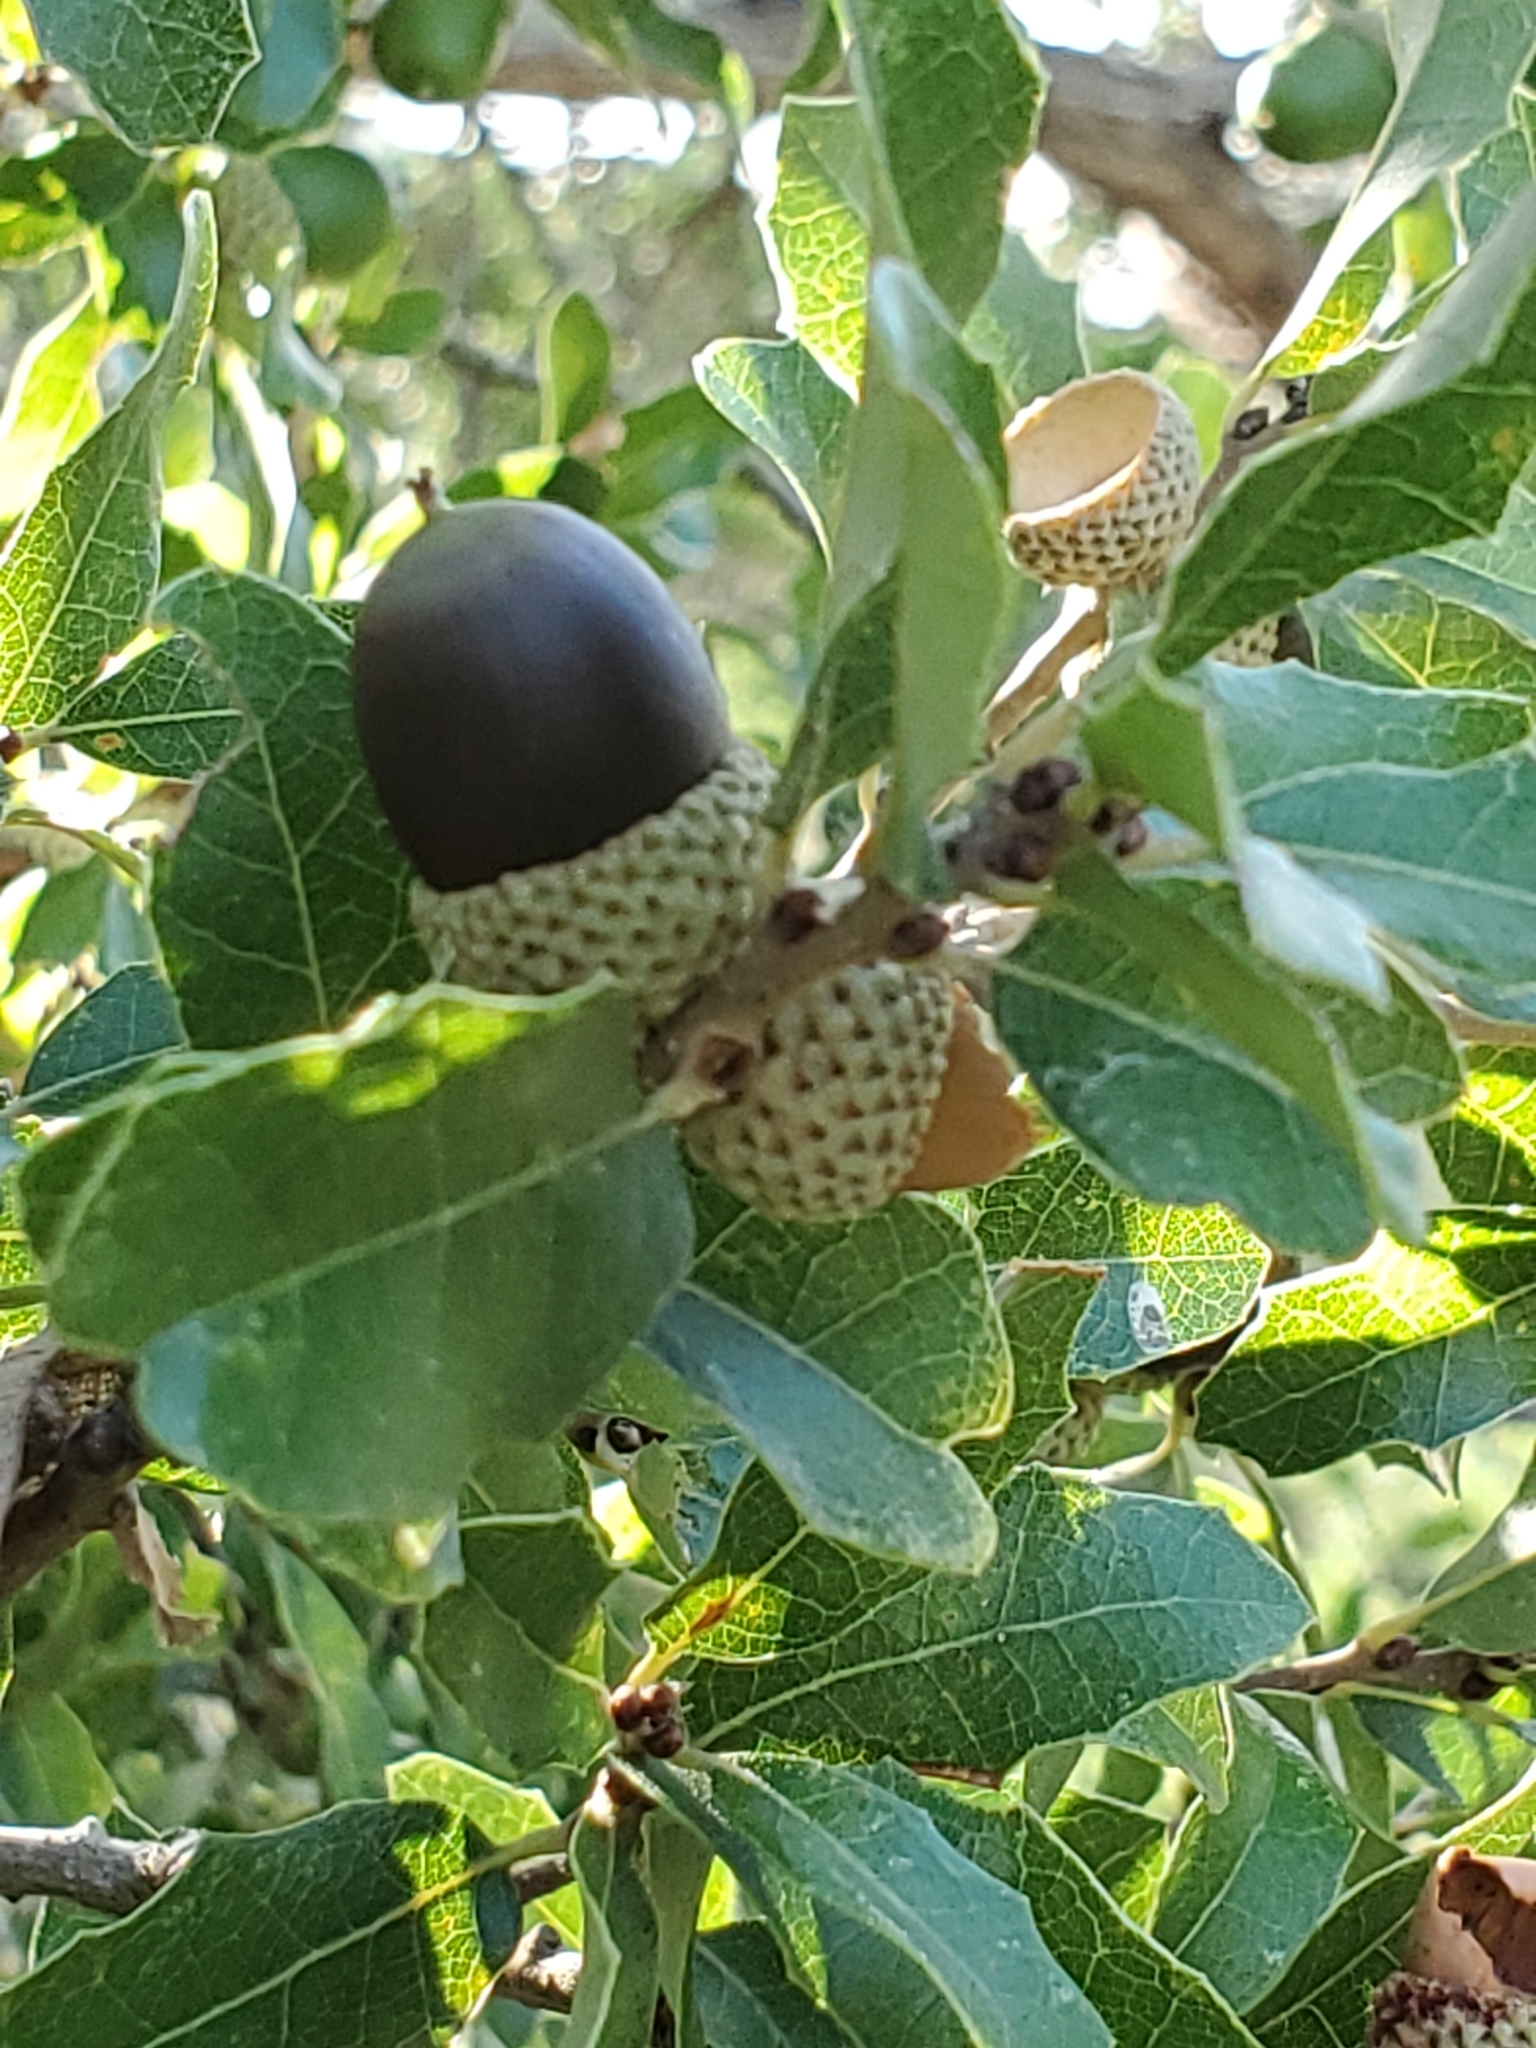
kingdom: Plantae
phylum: Tracheophyta
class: Magnoliopsida
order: Fagales
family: Fagaceae
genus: Quercus
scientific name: Quercus vaseyana
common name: Sandpaper oak
